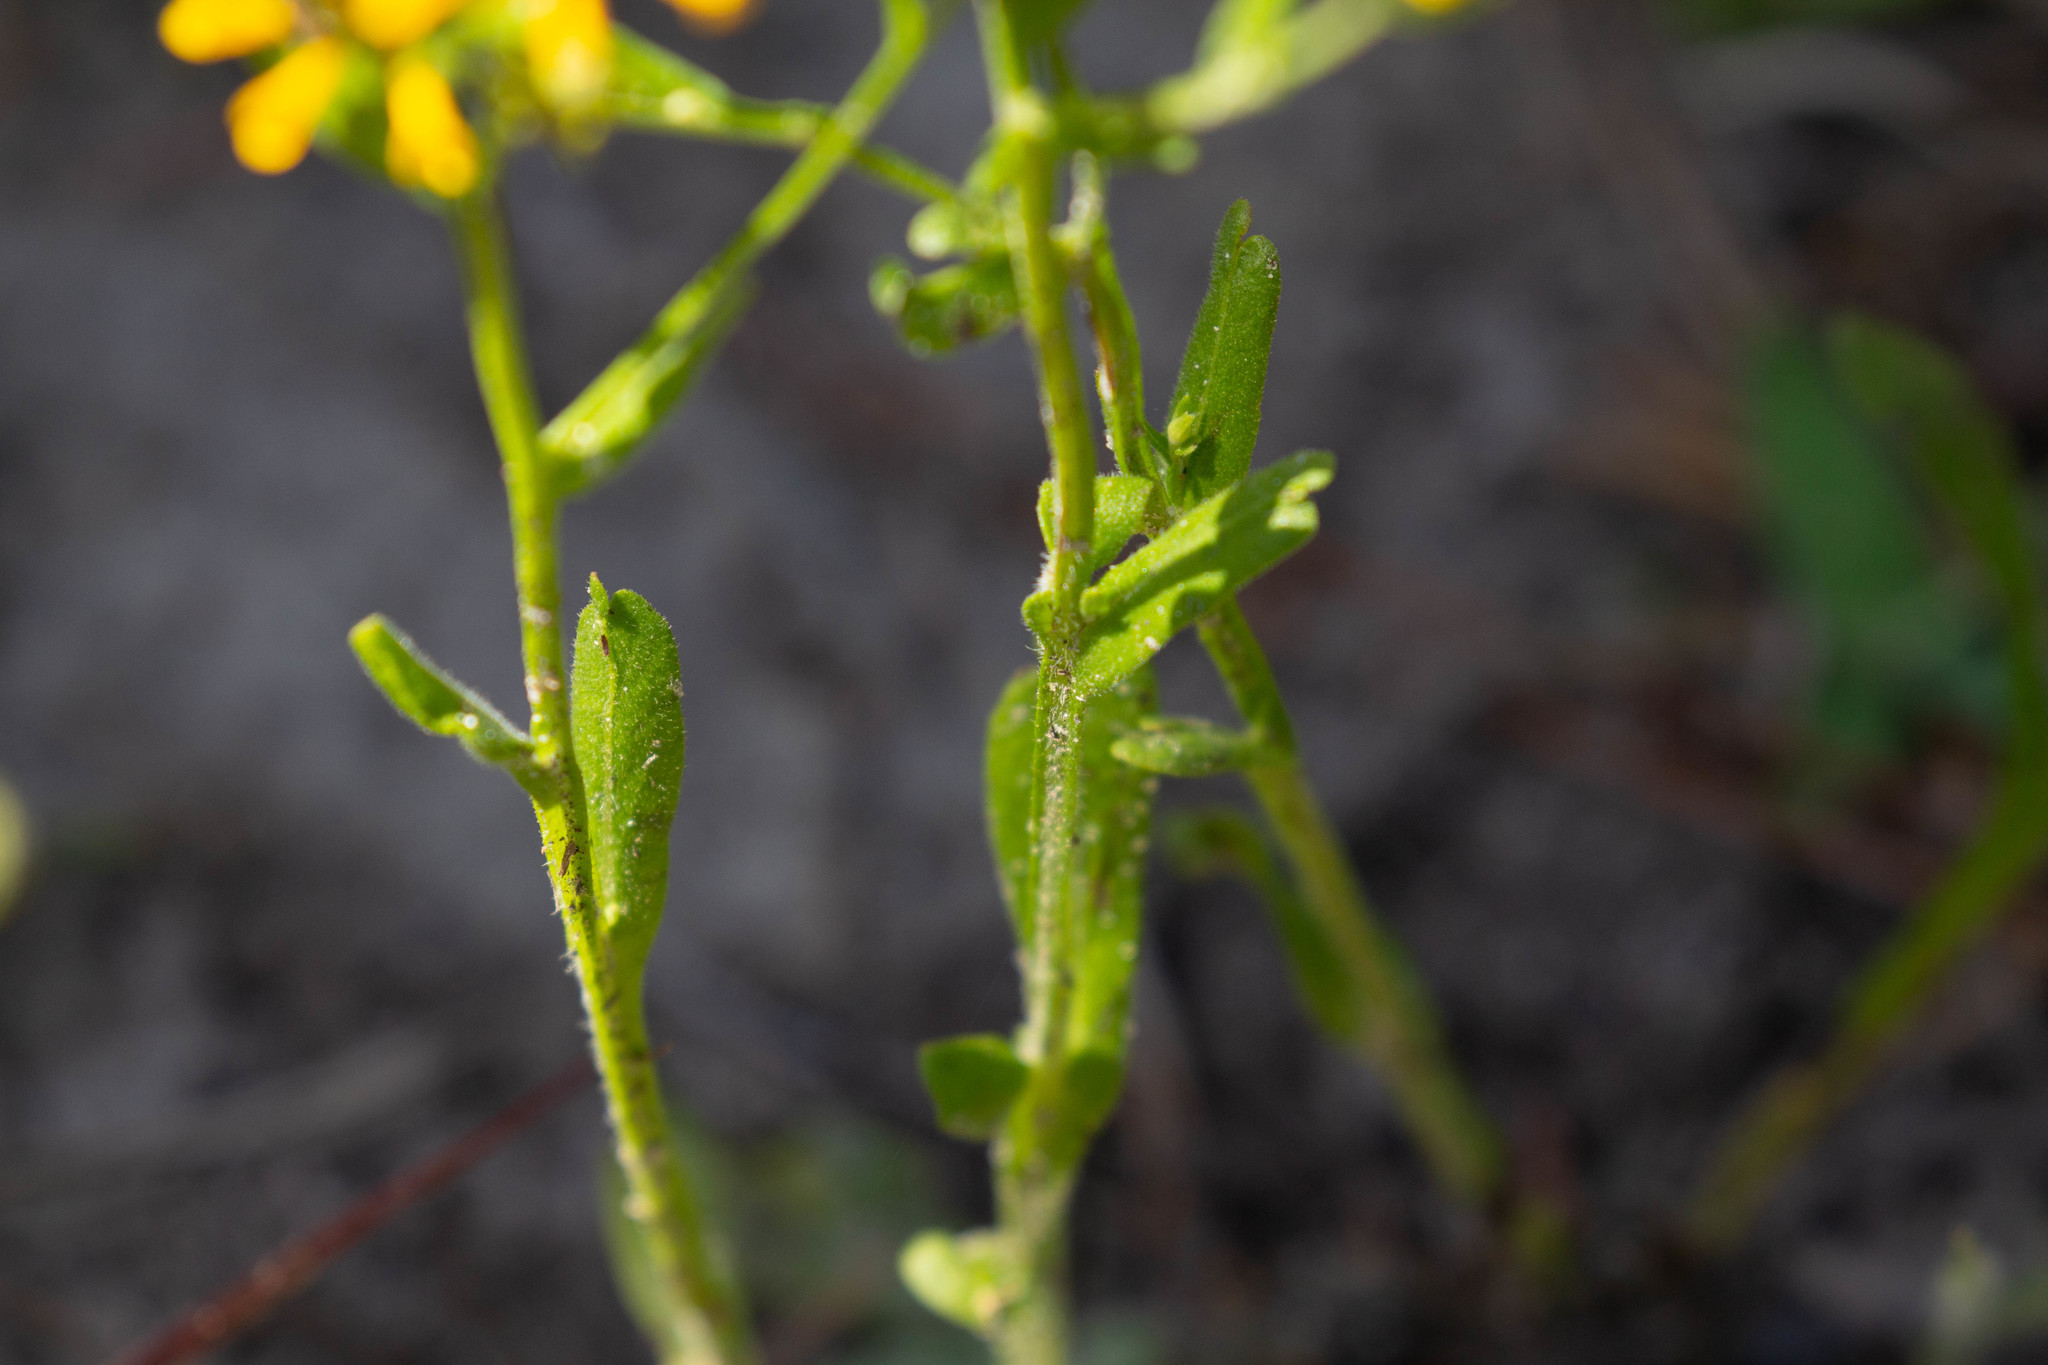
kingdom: Plantae
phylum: Tracheophyta
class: Magnoliopsida
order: Asterales
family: Asteraceae
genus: Helenium
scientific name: Helenium flexuosum
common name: Naked-flowered sneezeweed
